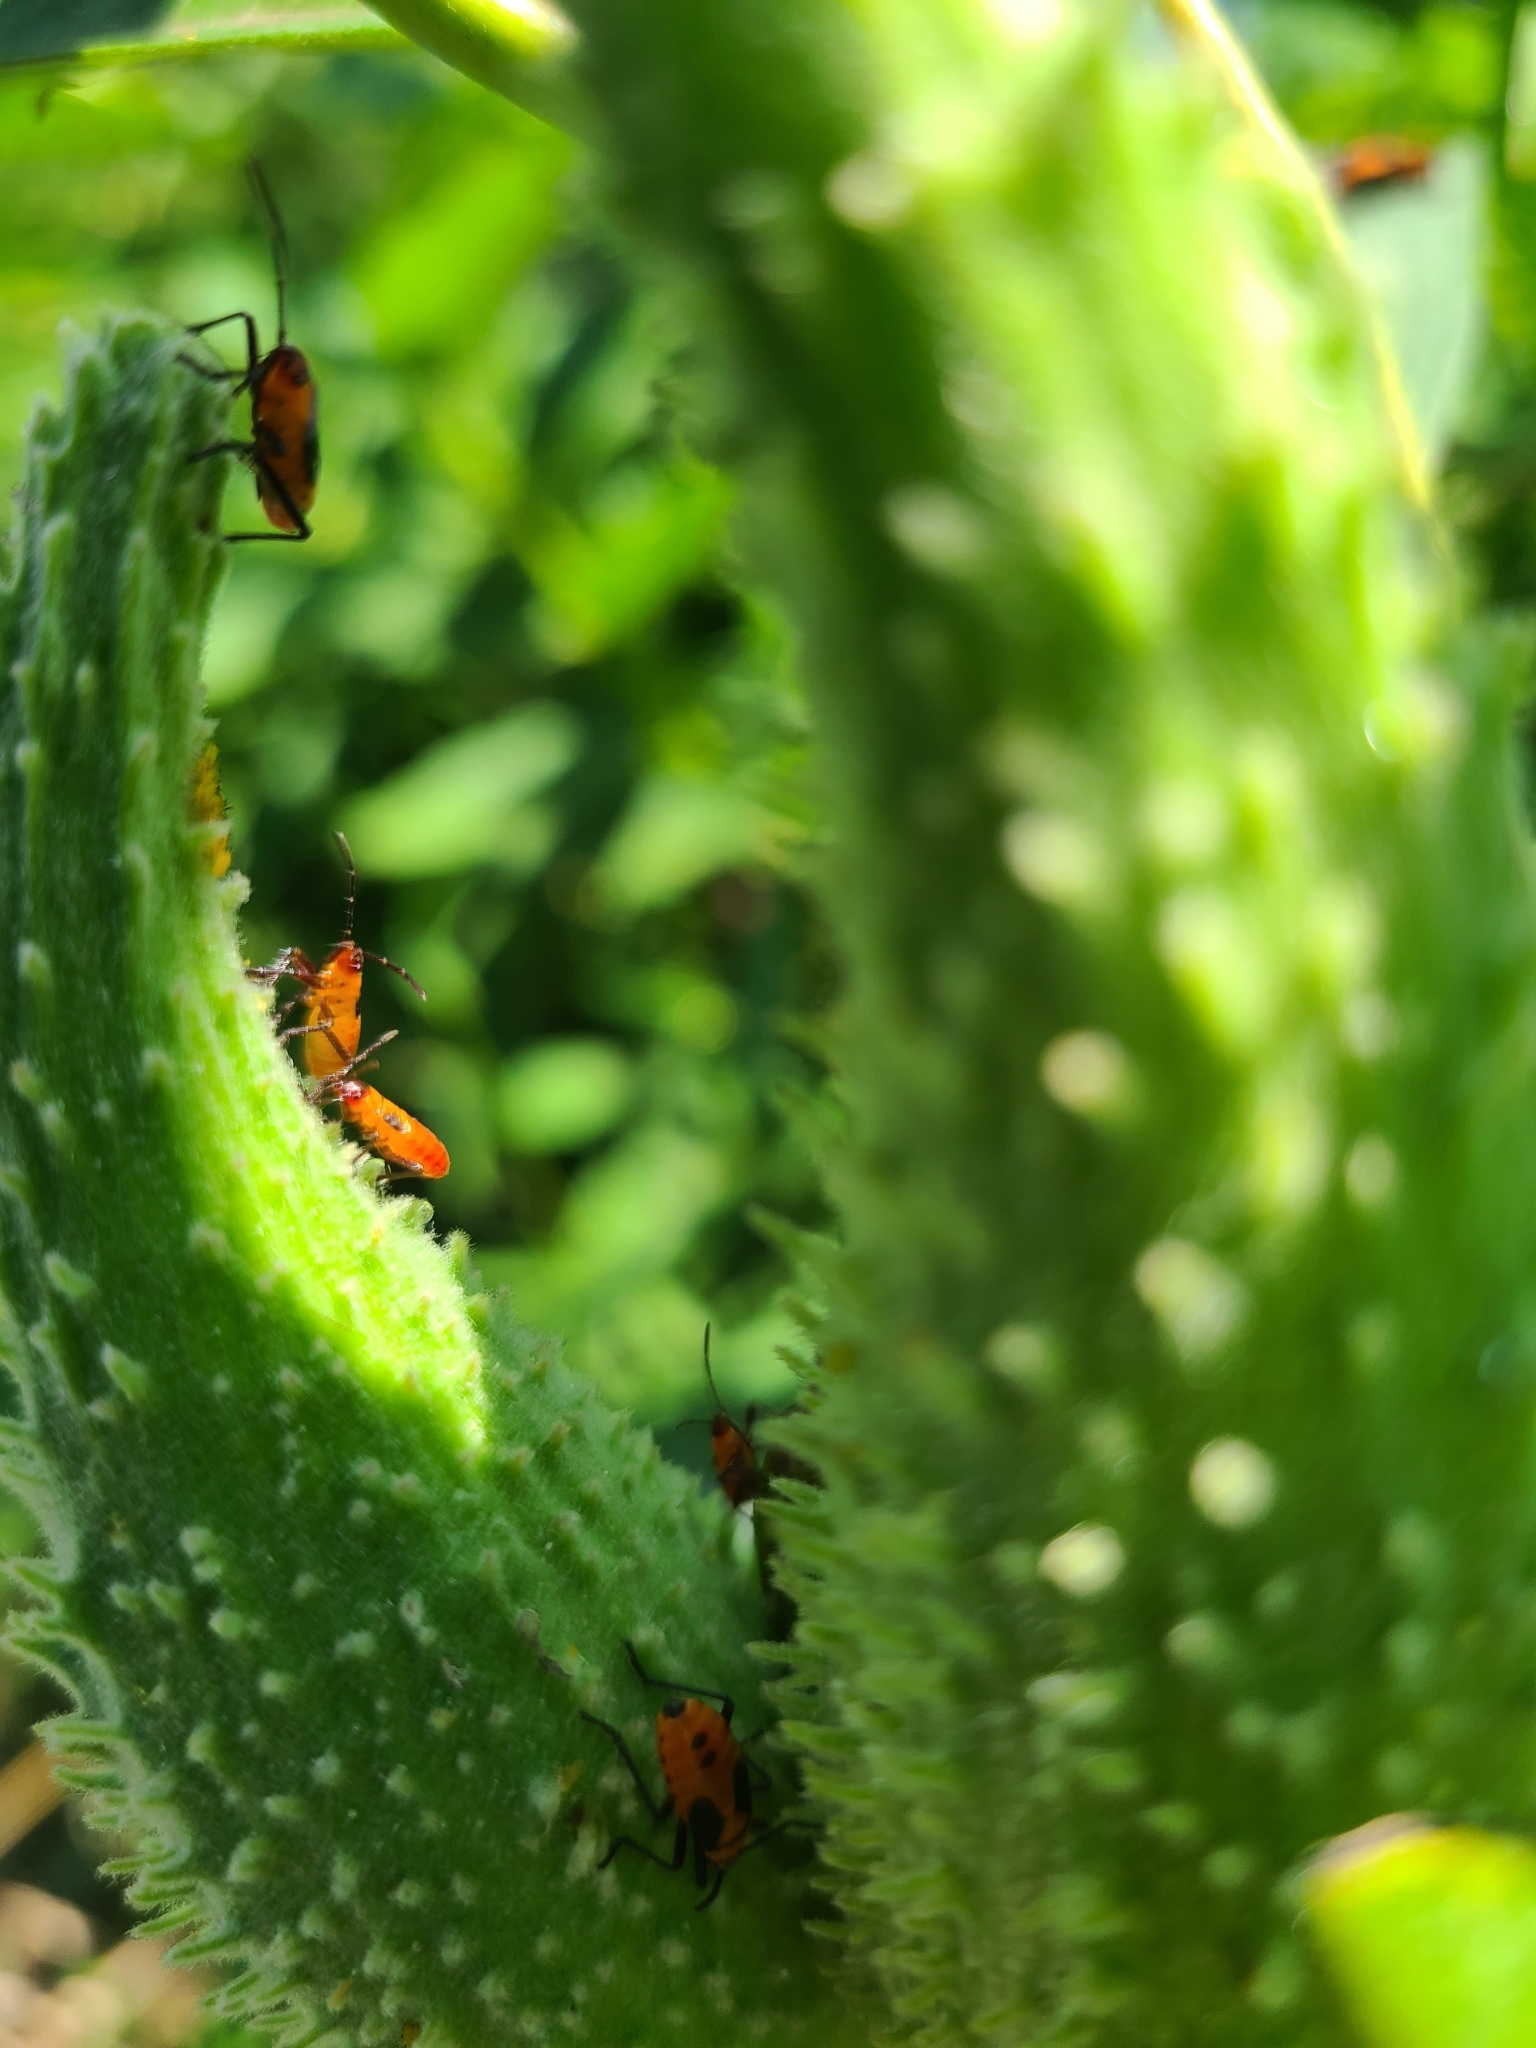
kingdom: Animalia
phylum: Arthropoda
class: Insecta
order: Hemiptera
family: Lygaeidae
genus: Oncopeltus
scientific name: Oncopeltus fasciatus
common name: Large milkweed bug
